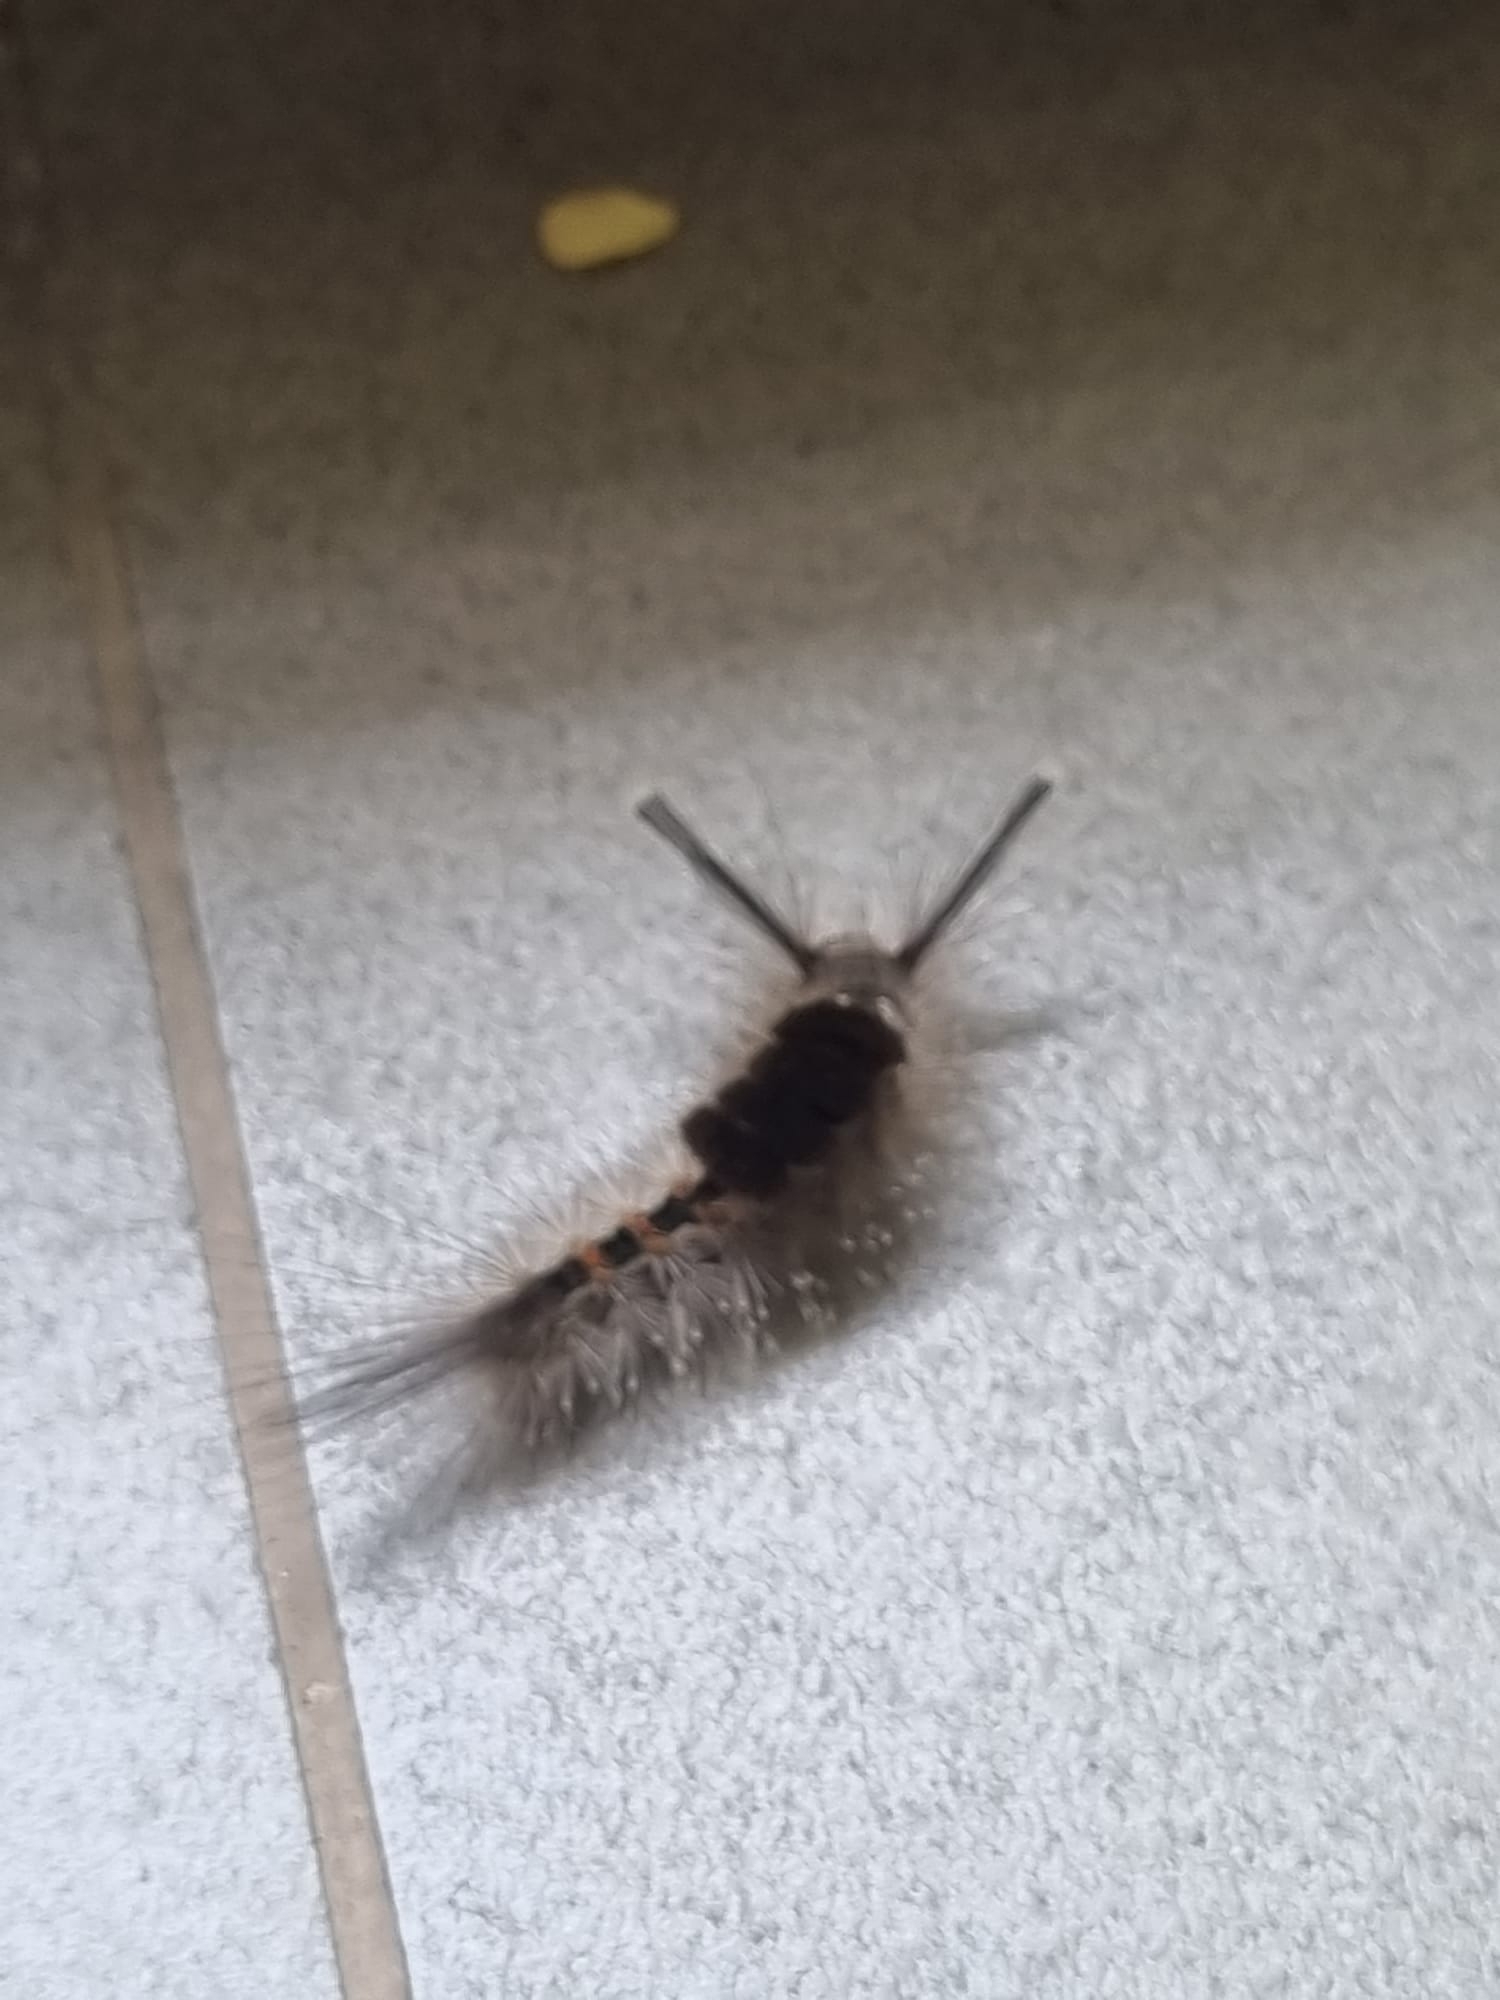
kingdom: Animalia
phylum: Arthropoda
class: Insecta
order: Lepidoptera
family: Erebidae
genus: Dasychira
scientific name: Dasychira chekiangensis
